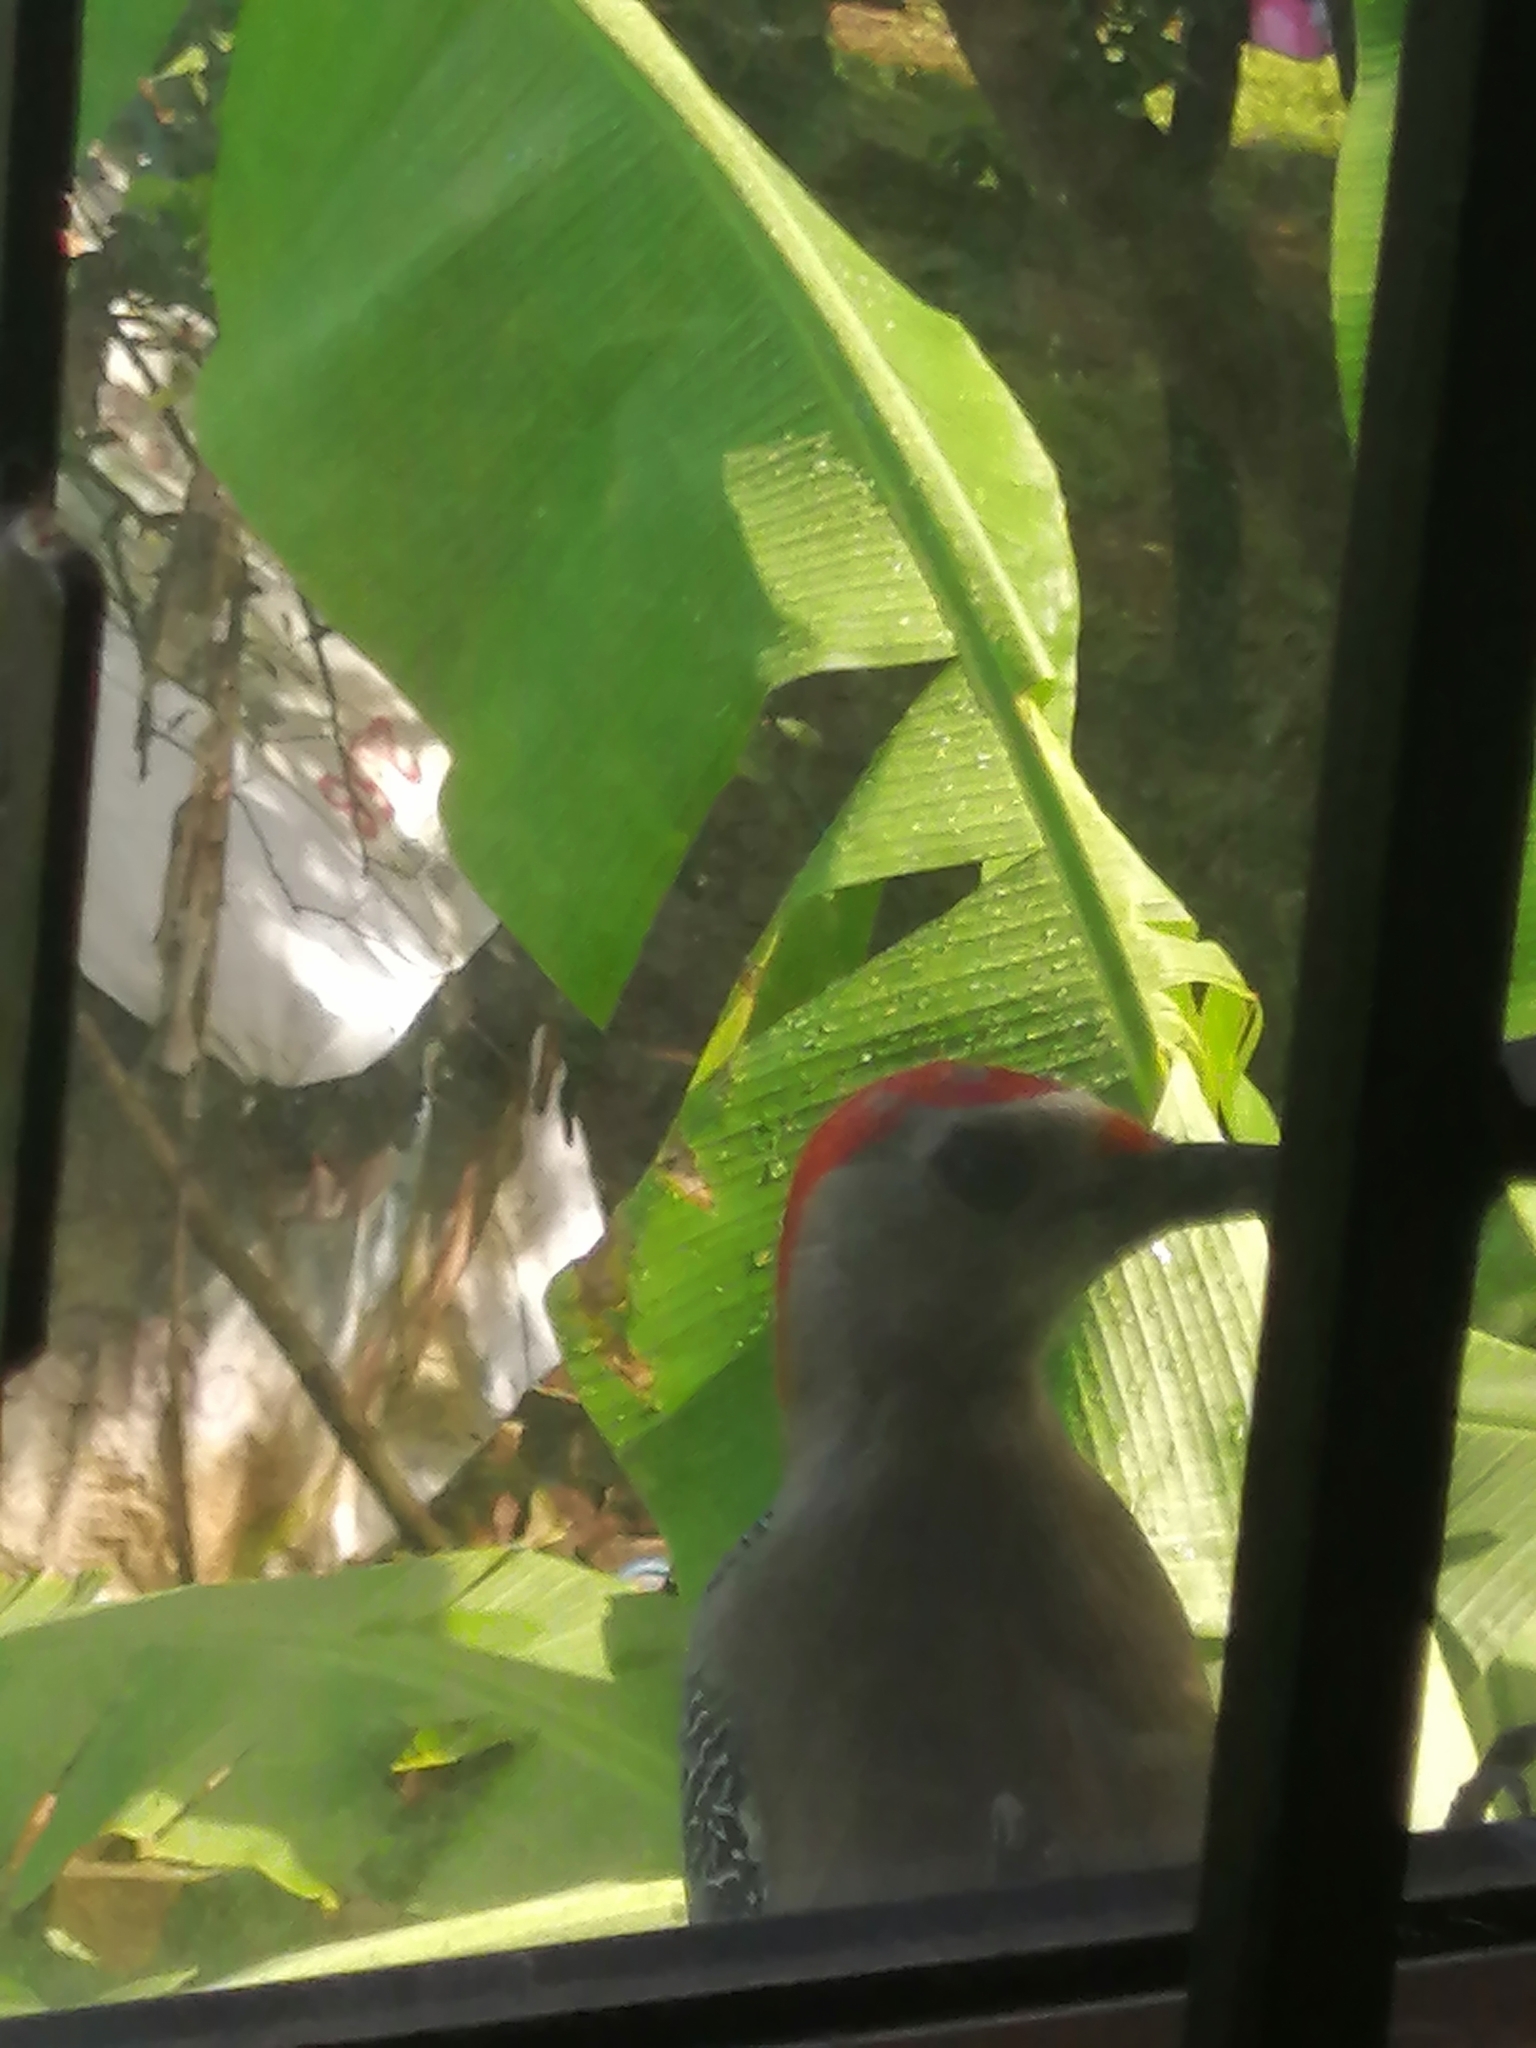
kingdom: Animalia
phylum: Chordata
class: Aves
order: Piciformes
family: Picidae
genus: Melanerpes
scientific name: Melanerpes aurifrons
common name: Golden-fronted woodpecker
